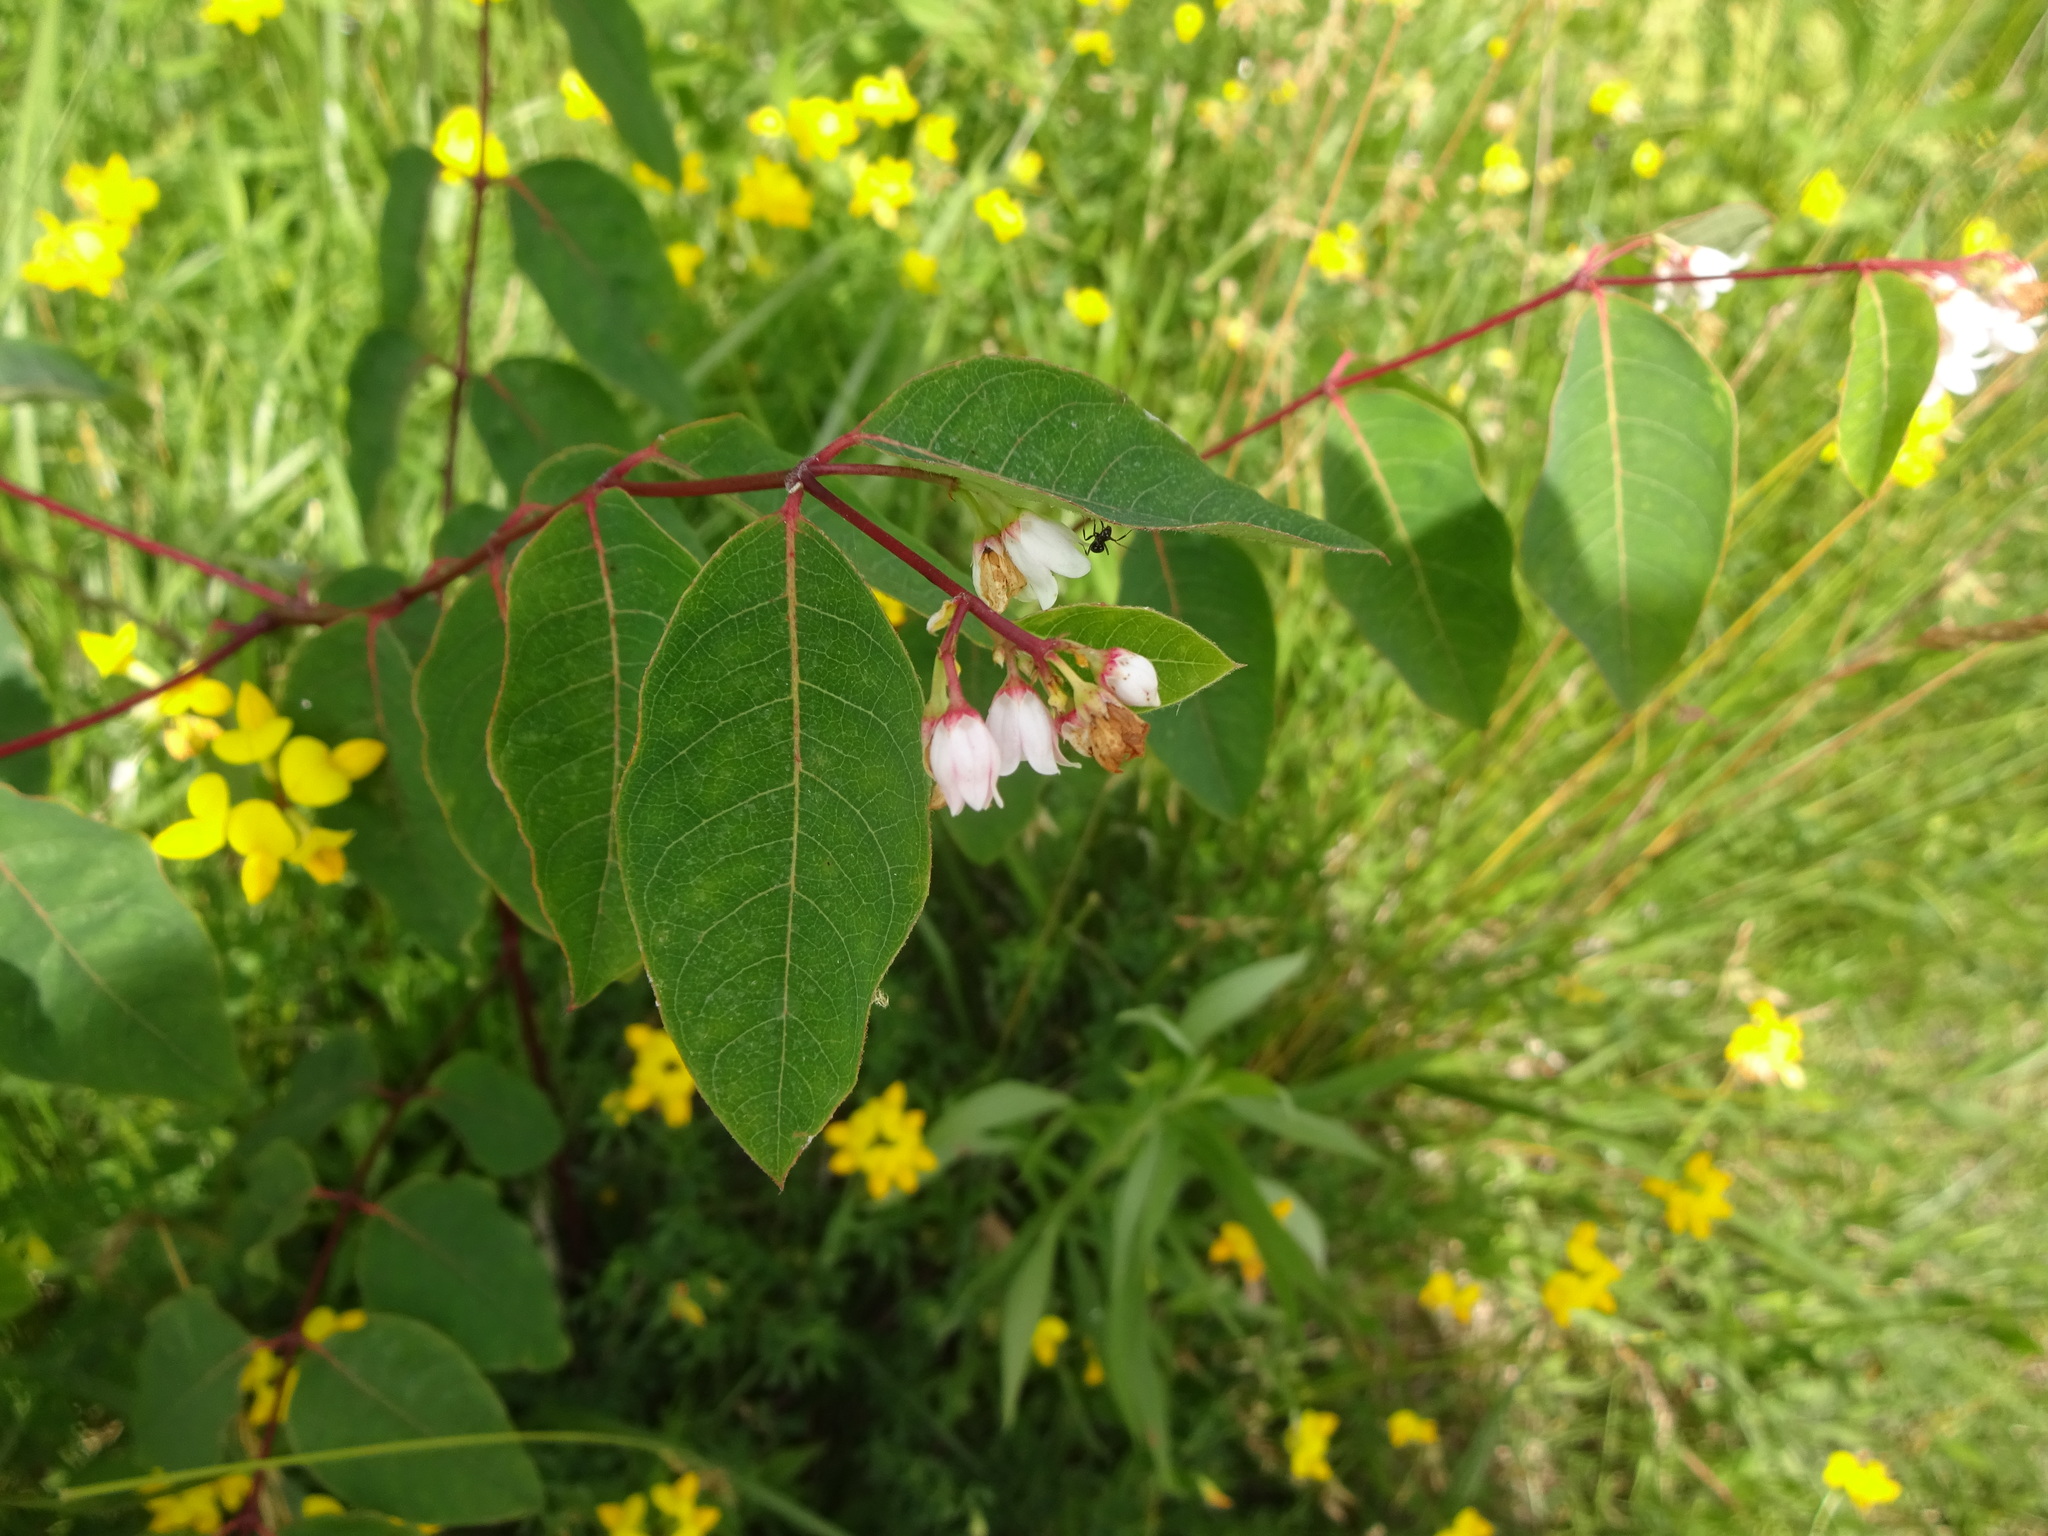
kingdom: Plantae
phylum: Tracheophyta
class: Magnoliopsida
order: Gentianales
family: Apocynaceae
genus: Apocynum
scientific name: Apocynum androsaemifolium
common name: Spreading dogbane
